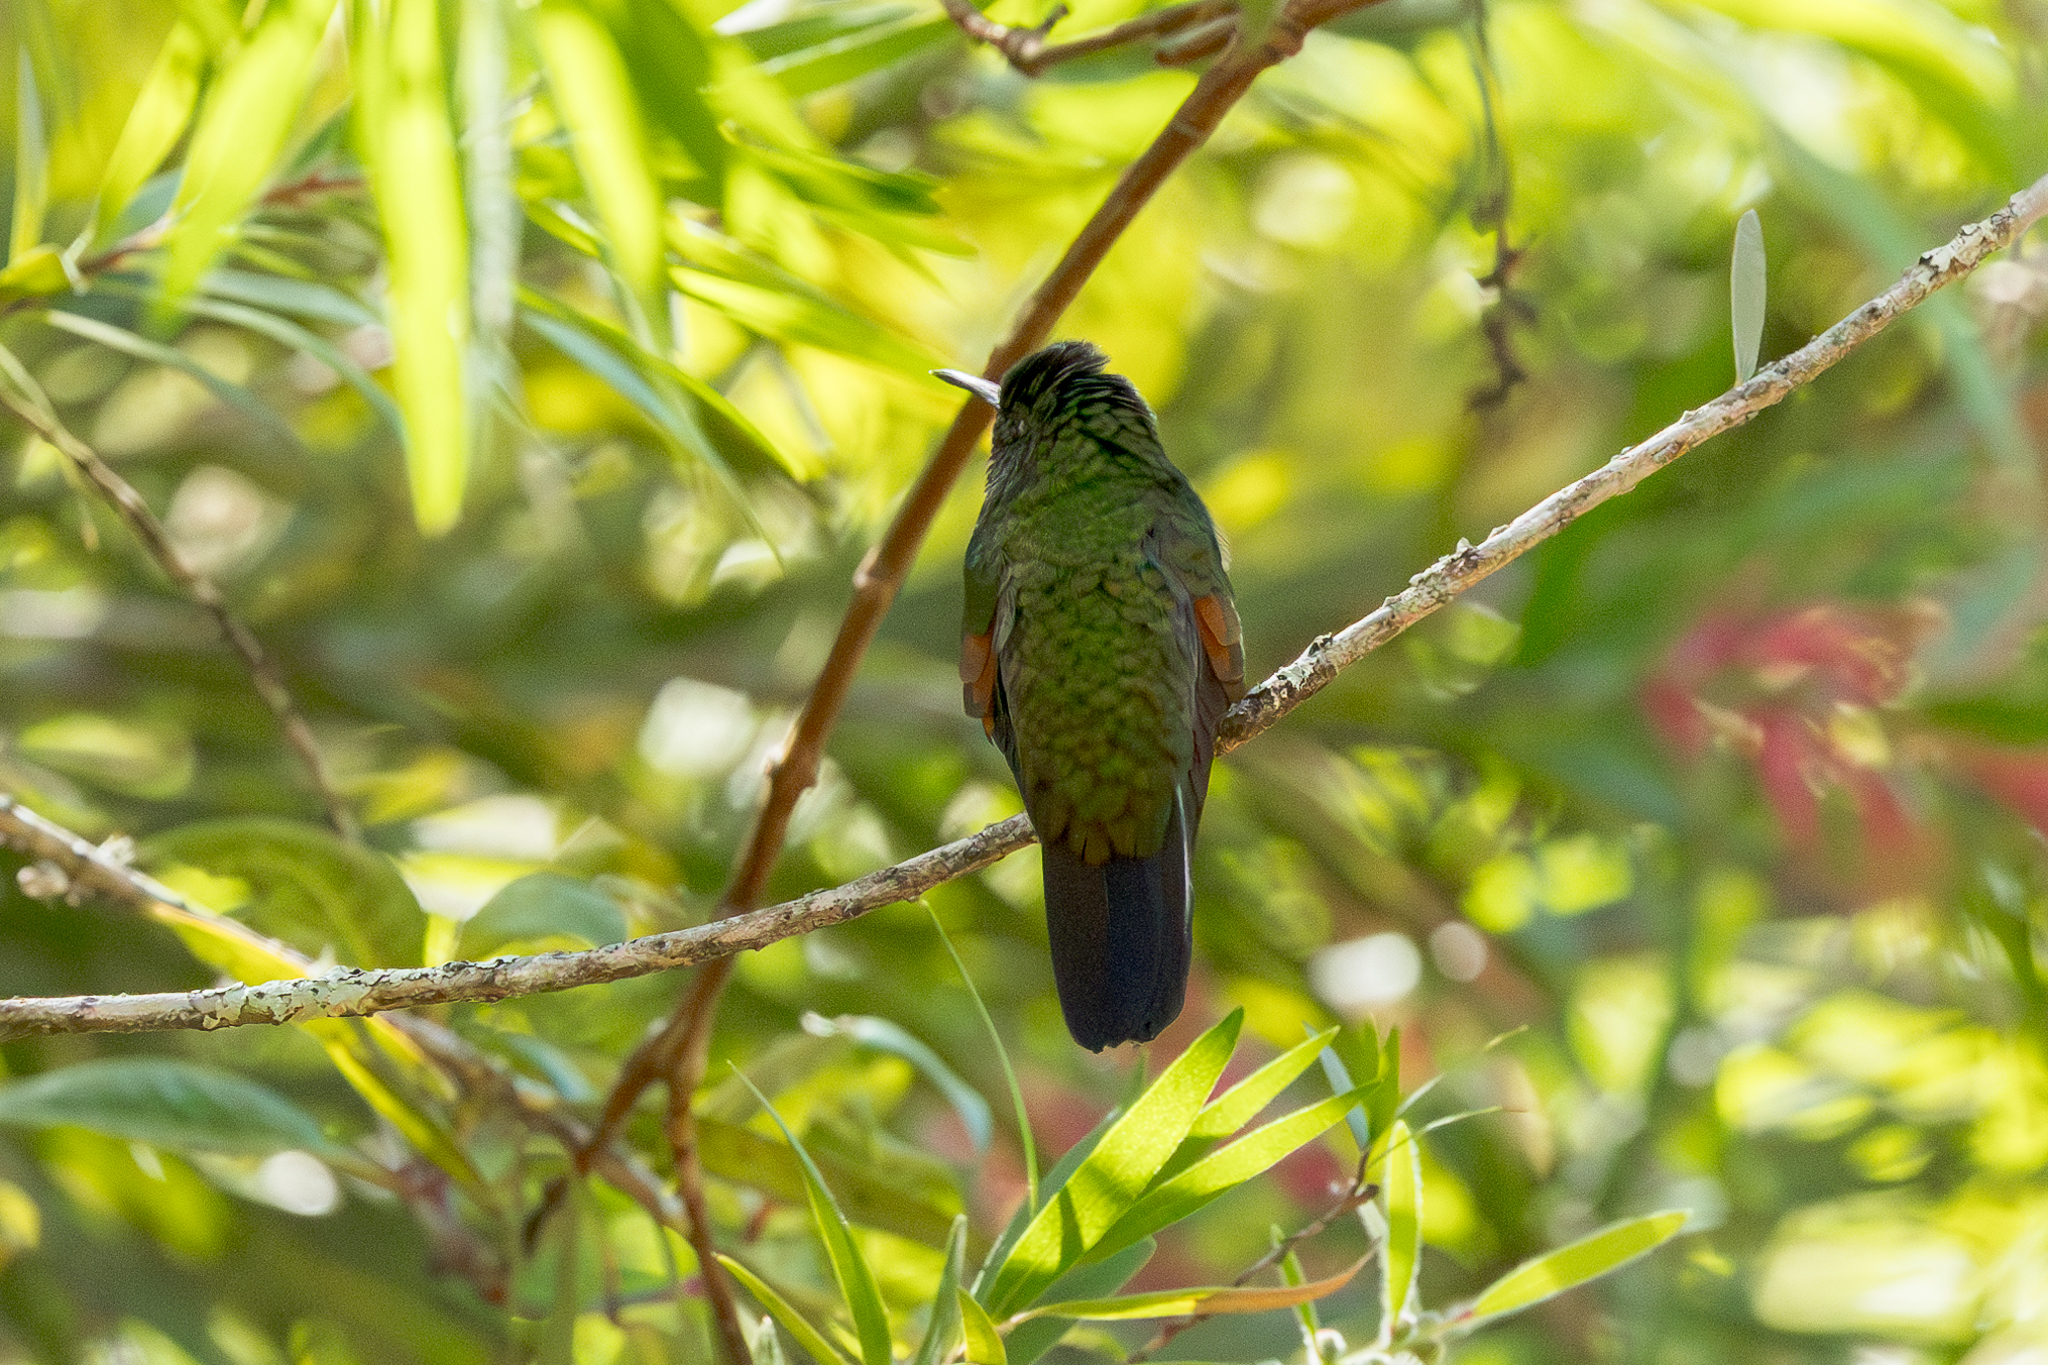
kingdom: Animalia
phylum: Chordata
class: Aves
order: Apodiformes
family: Trochilidae
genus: Eupherusa
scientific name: Eupherusa eximia
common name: Stripe-tailed hummingbird
